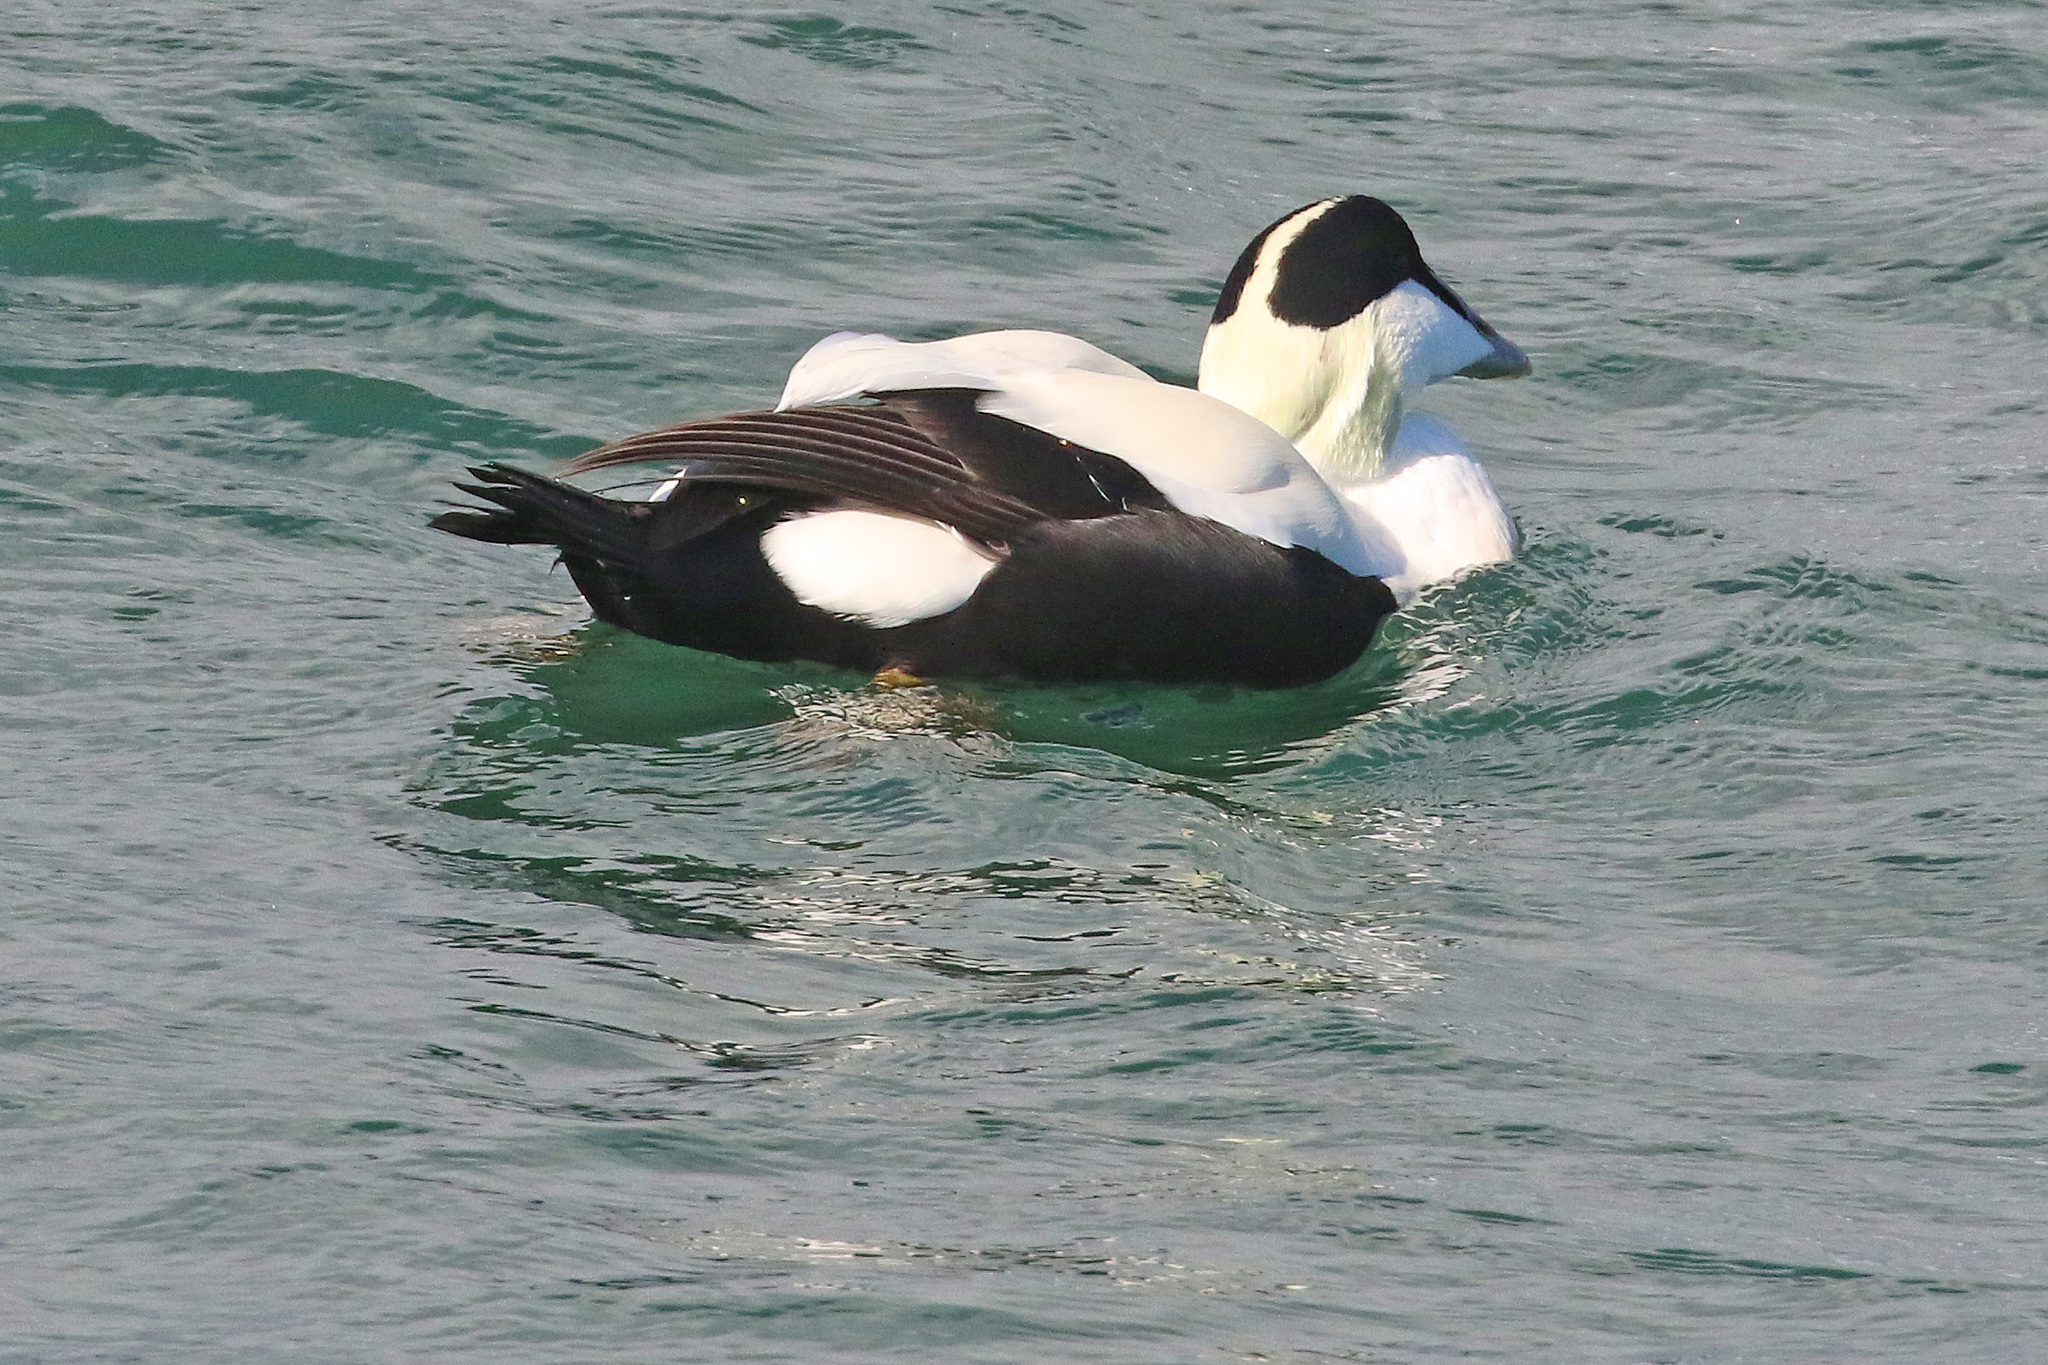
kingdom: Animalia
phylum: Chordata
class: Aves
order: Anseriformes
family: Anatidae
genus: Somateria
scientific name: Somateria mollissima
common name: Common eider
